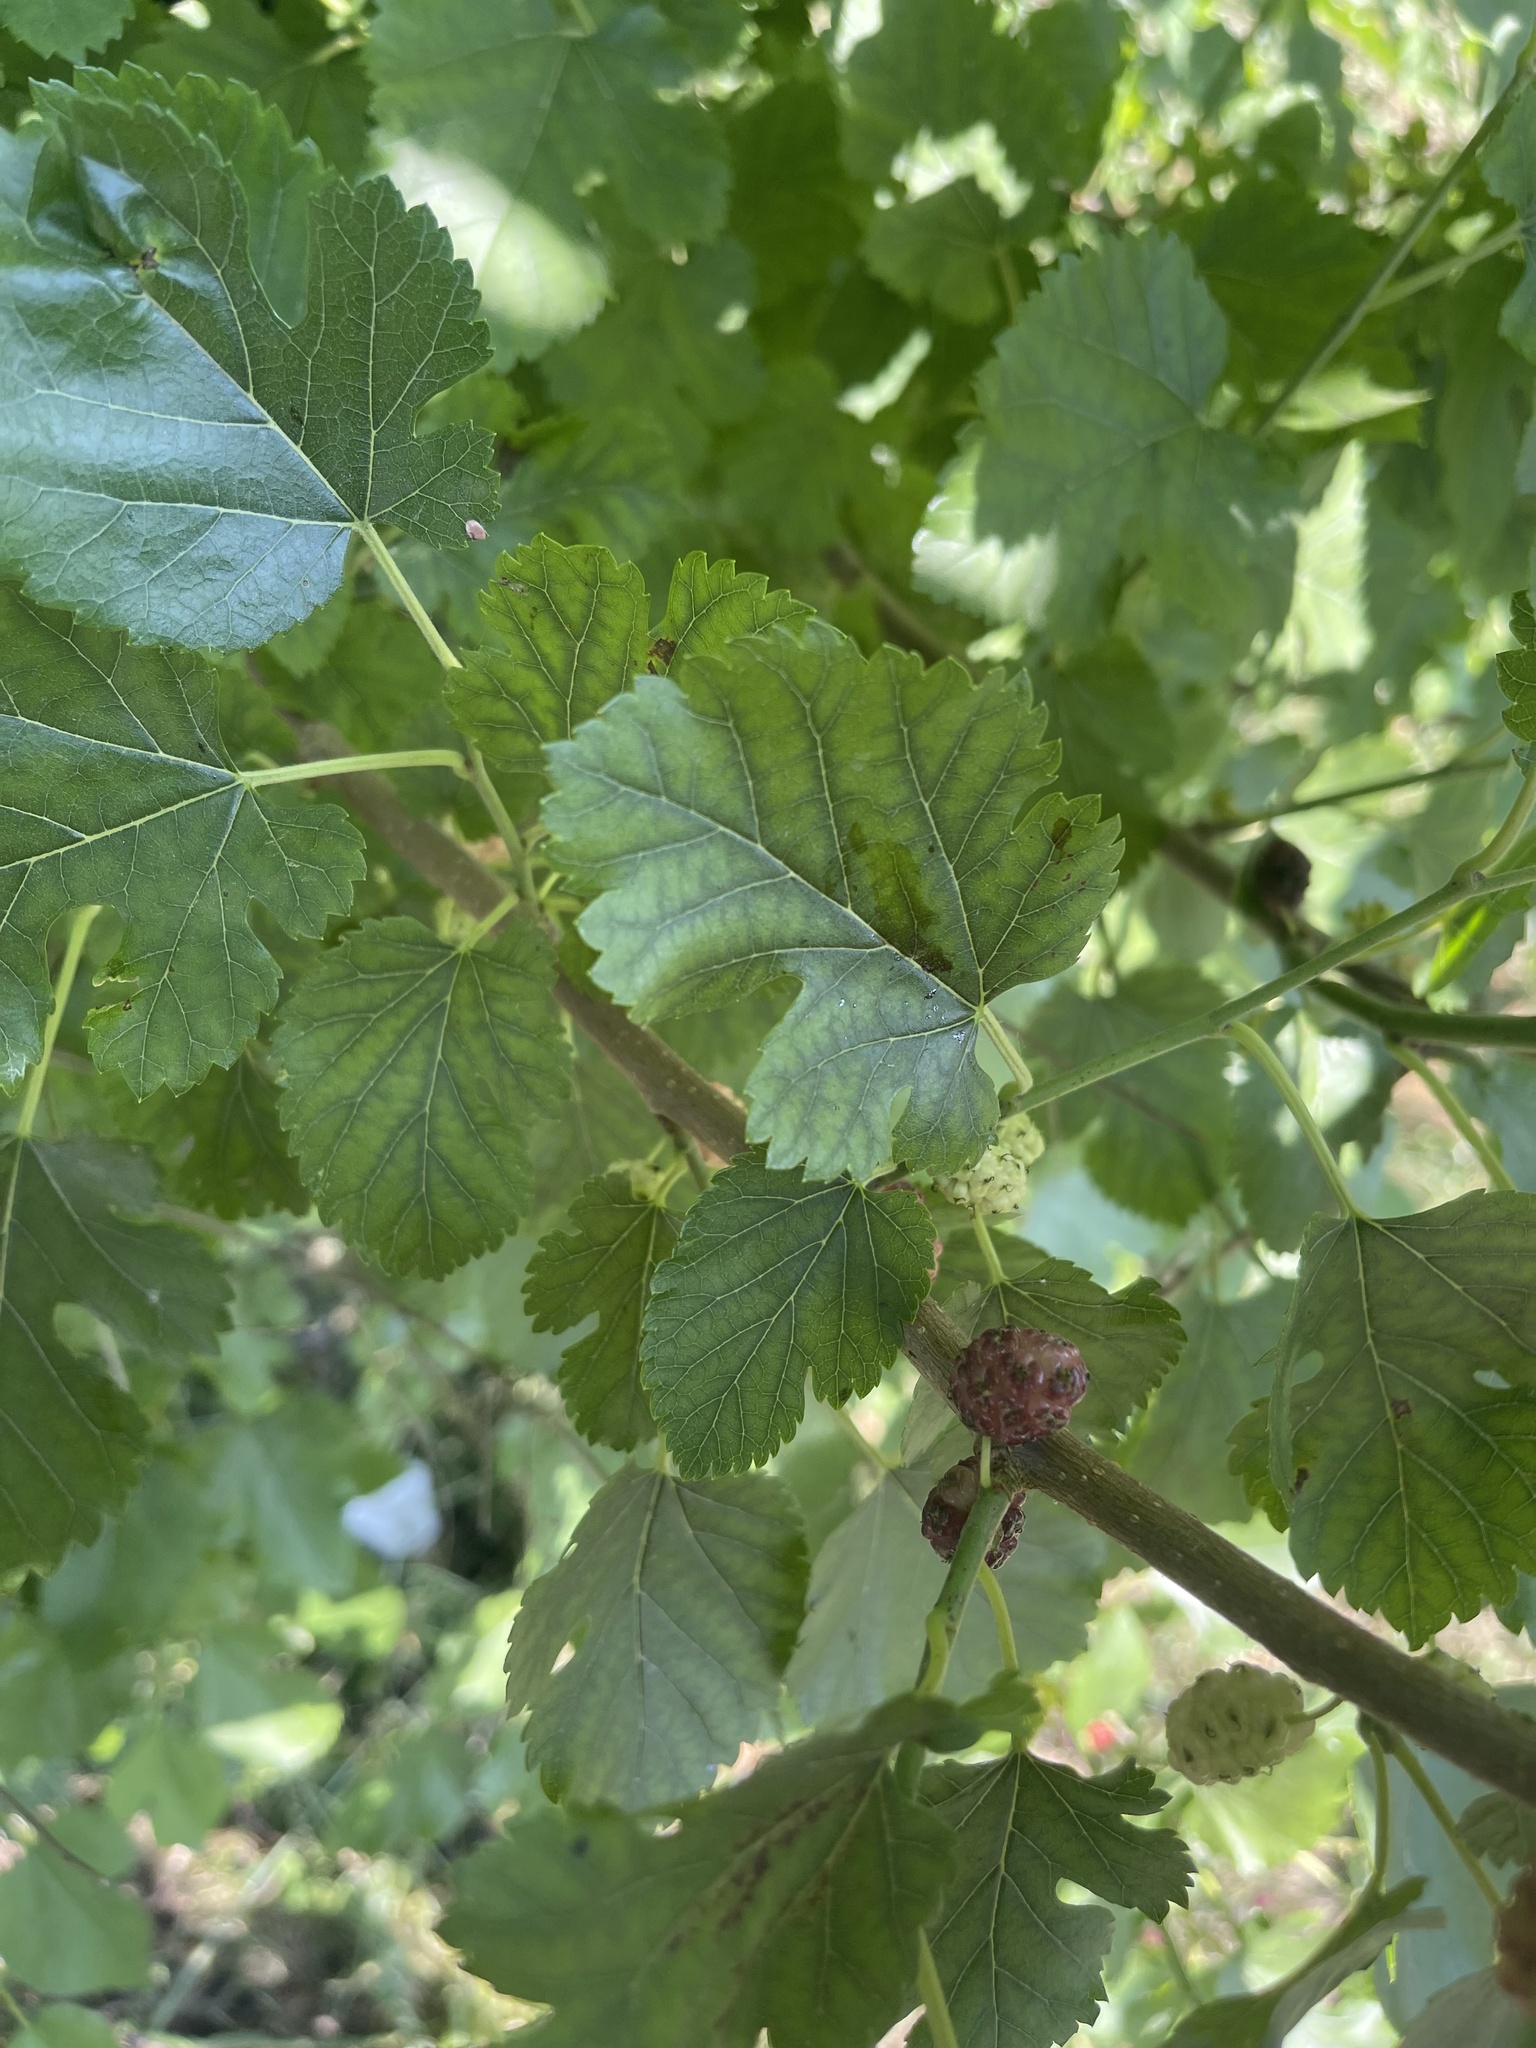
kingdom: Plantae
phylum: Tracheophyta
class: Magnoliopsida
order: Rosales
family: Moraceae
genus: Morus
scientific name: Morus alba
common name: White mulberry
